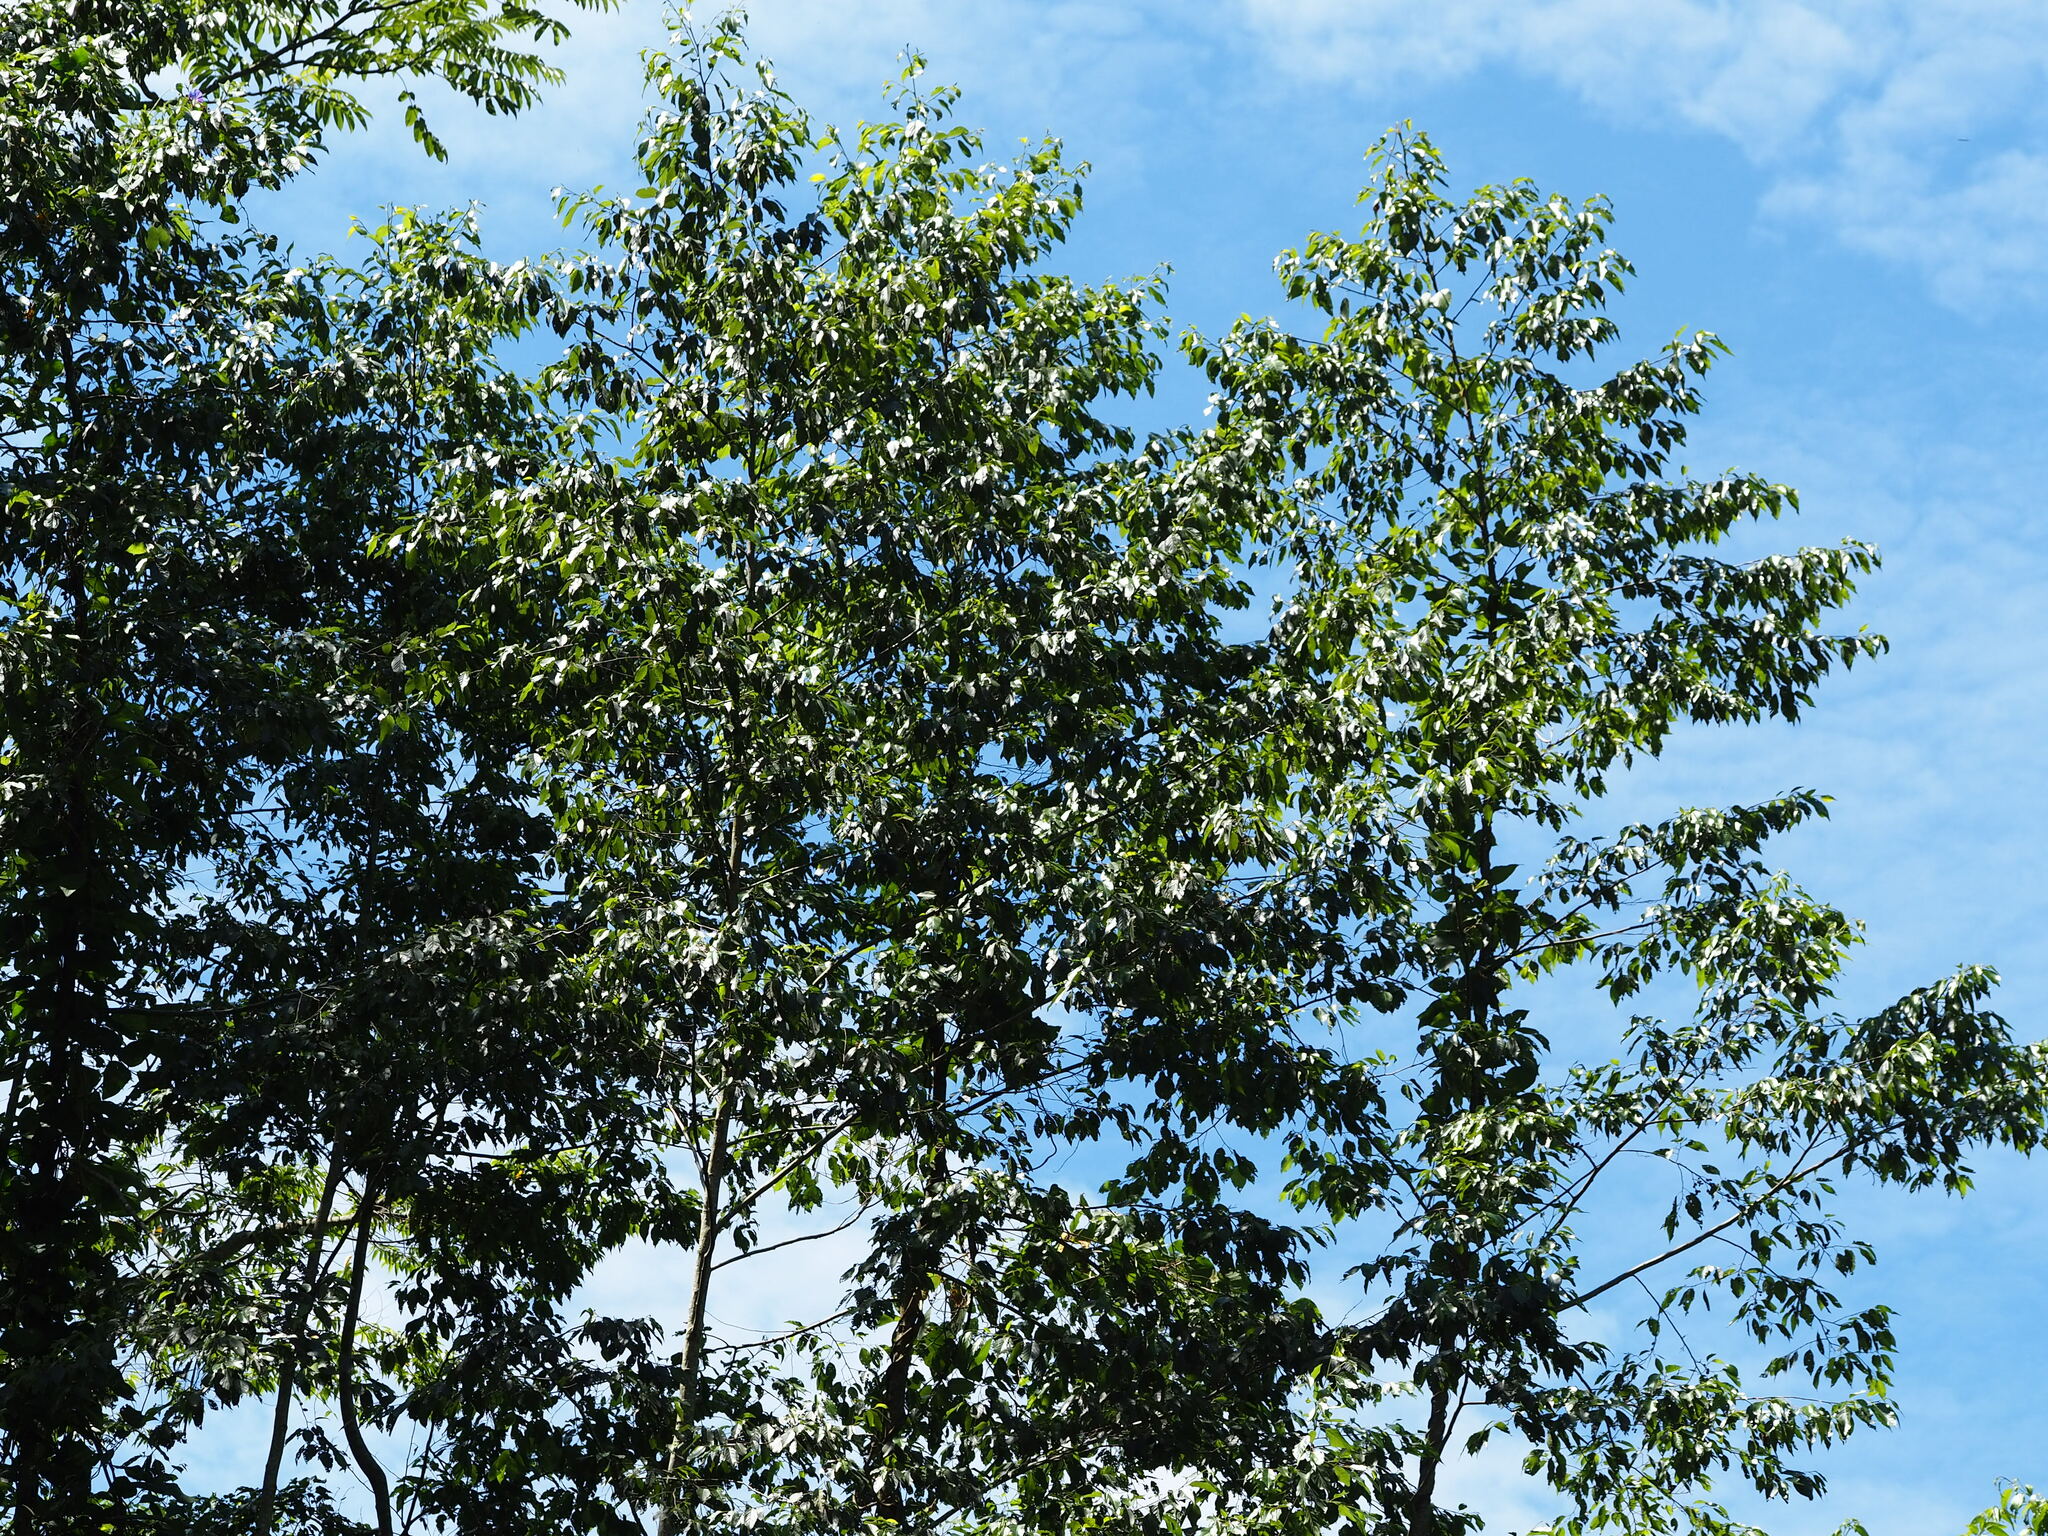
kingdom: Plantae
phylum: Tracheophyta
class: Magnoliopsida
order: Fagales
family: Betulaceae
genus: Alnus
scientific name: Alnus formosana
